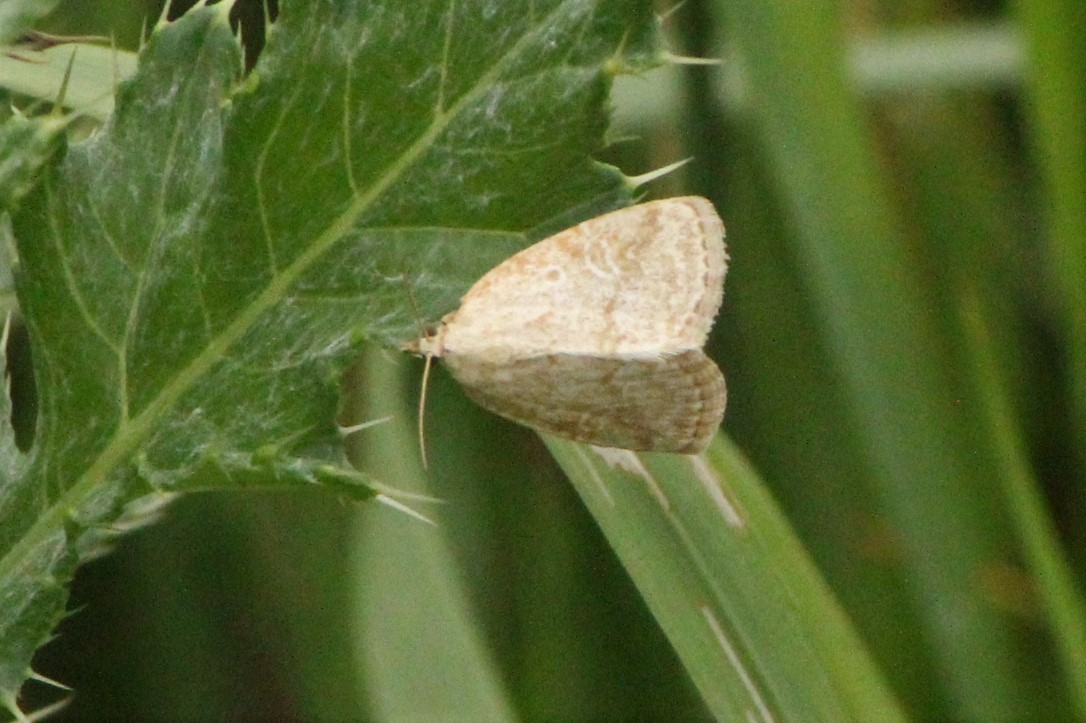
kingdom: Animalia
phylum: Arthropoda
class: Insecta
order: Lepidoptera
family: Noctuidae
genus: Protodeltote
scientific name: Protodeltote albidula
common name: Pale glyph
